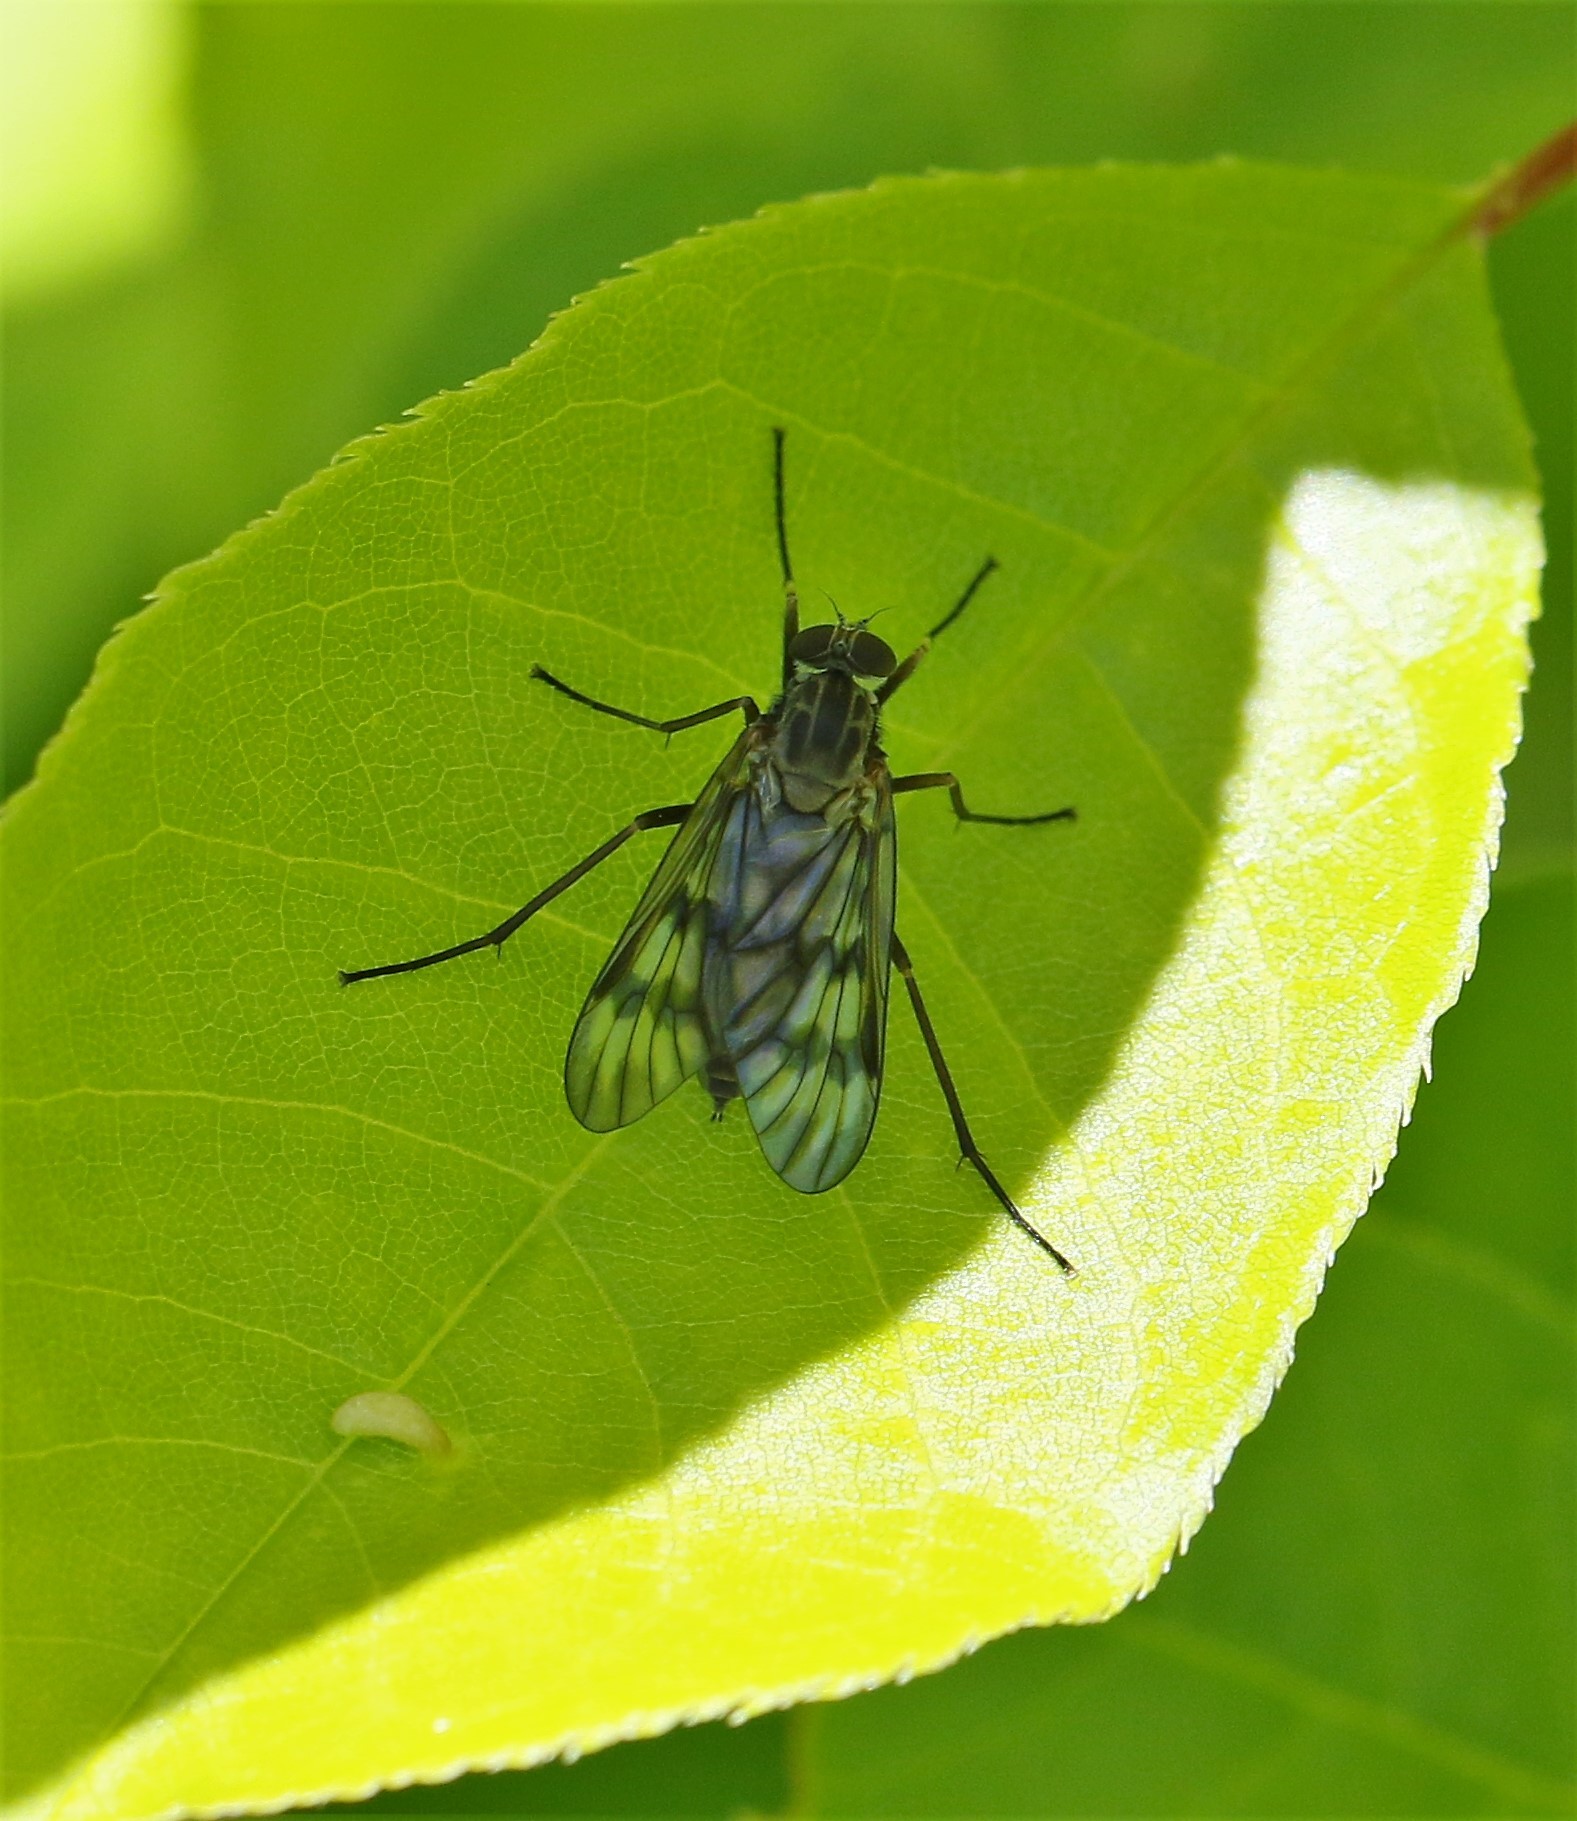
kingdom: Animalia
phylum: Arthropoda
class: Insecta
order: Diptera
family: Rhagionidae
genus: Rhagio
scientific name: Rhagio mystaceus
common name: Common snipe fly
